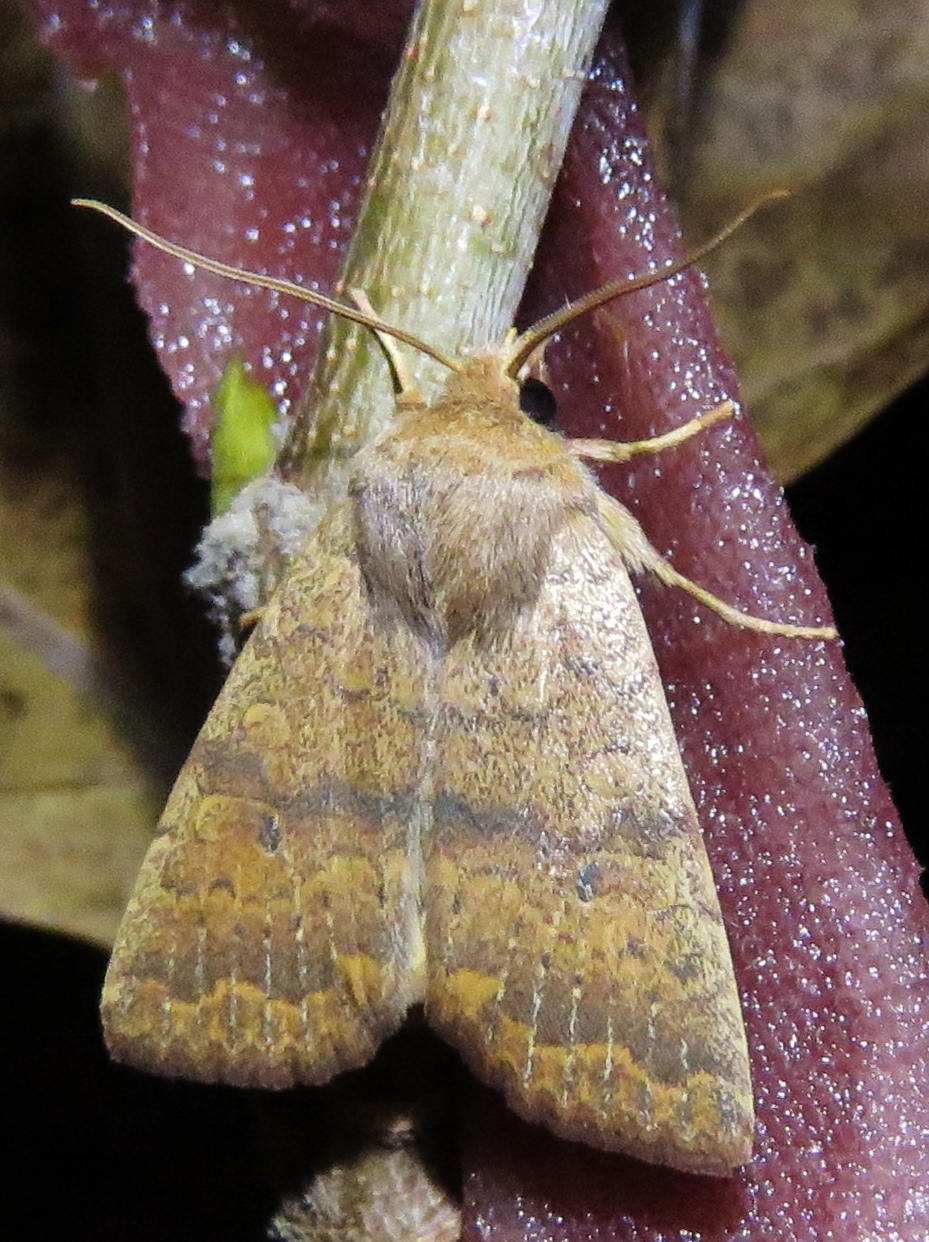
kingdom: Animalia
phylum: Arthropoda
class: Insecta
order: Lepidoptera
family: Noctuidae
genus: Agrochola
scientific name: Agrochola bicolorago
